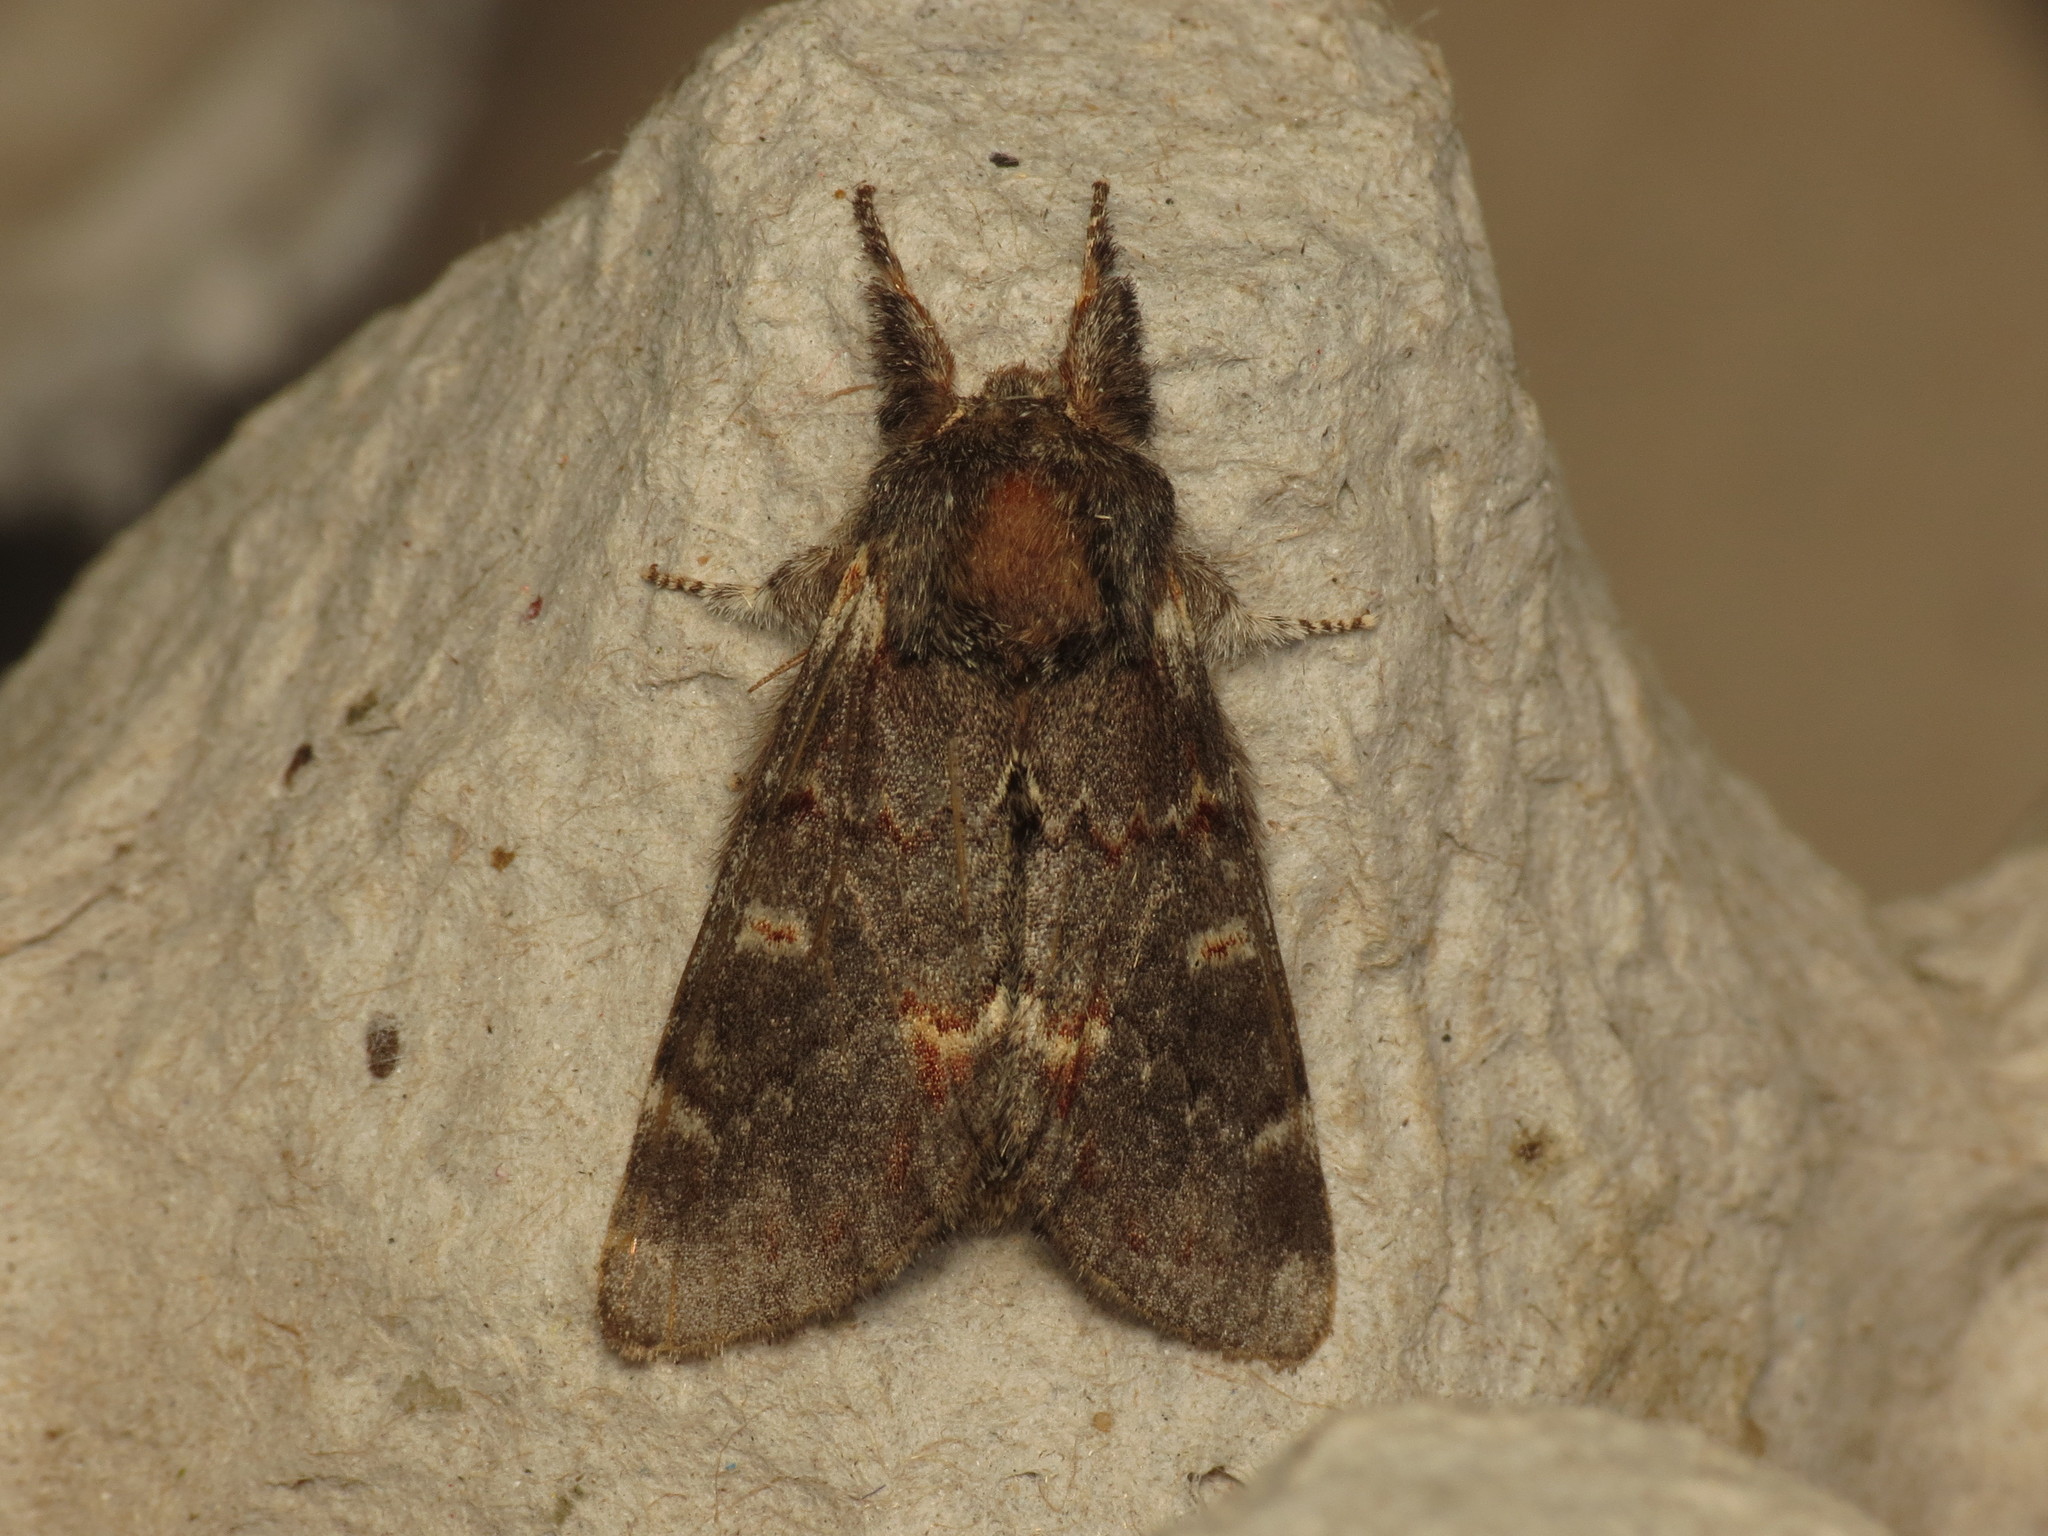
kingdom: Animalia
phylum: Arthropoda
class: Insecta
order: Lepidoptera
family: Notodontidae
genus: Notodonta
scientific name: Notodonta dromedarius
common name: Iron prominent
